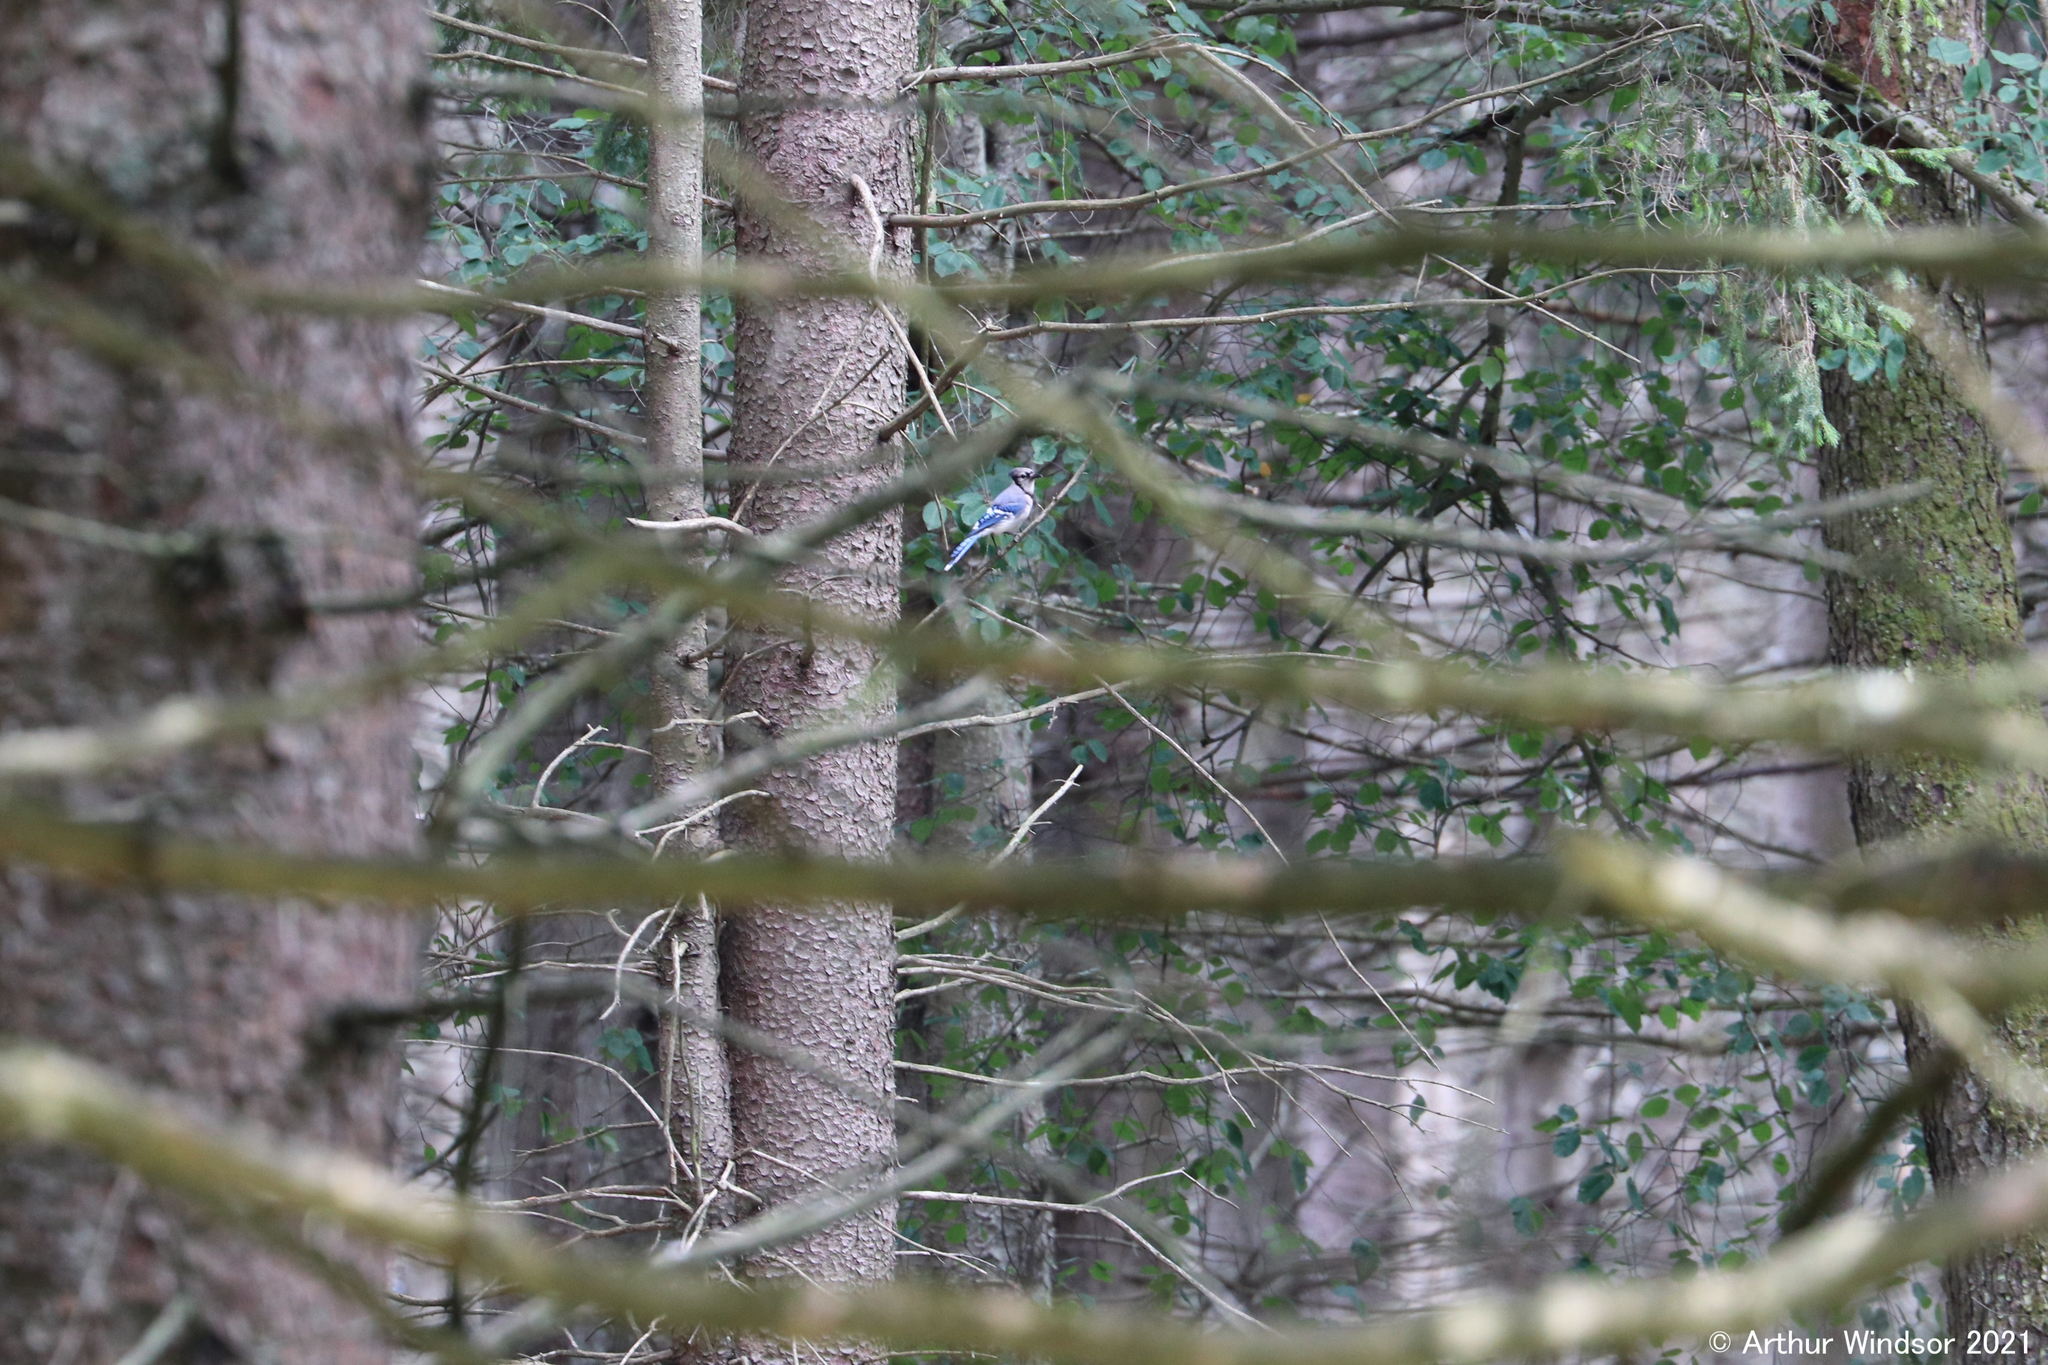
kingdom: Animalia
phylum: Chordata
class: Aves
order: Passeriformes
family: Corvidae
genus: Cyanocitta
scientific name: Cyanocitta cristata
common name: Blue jay
